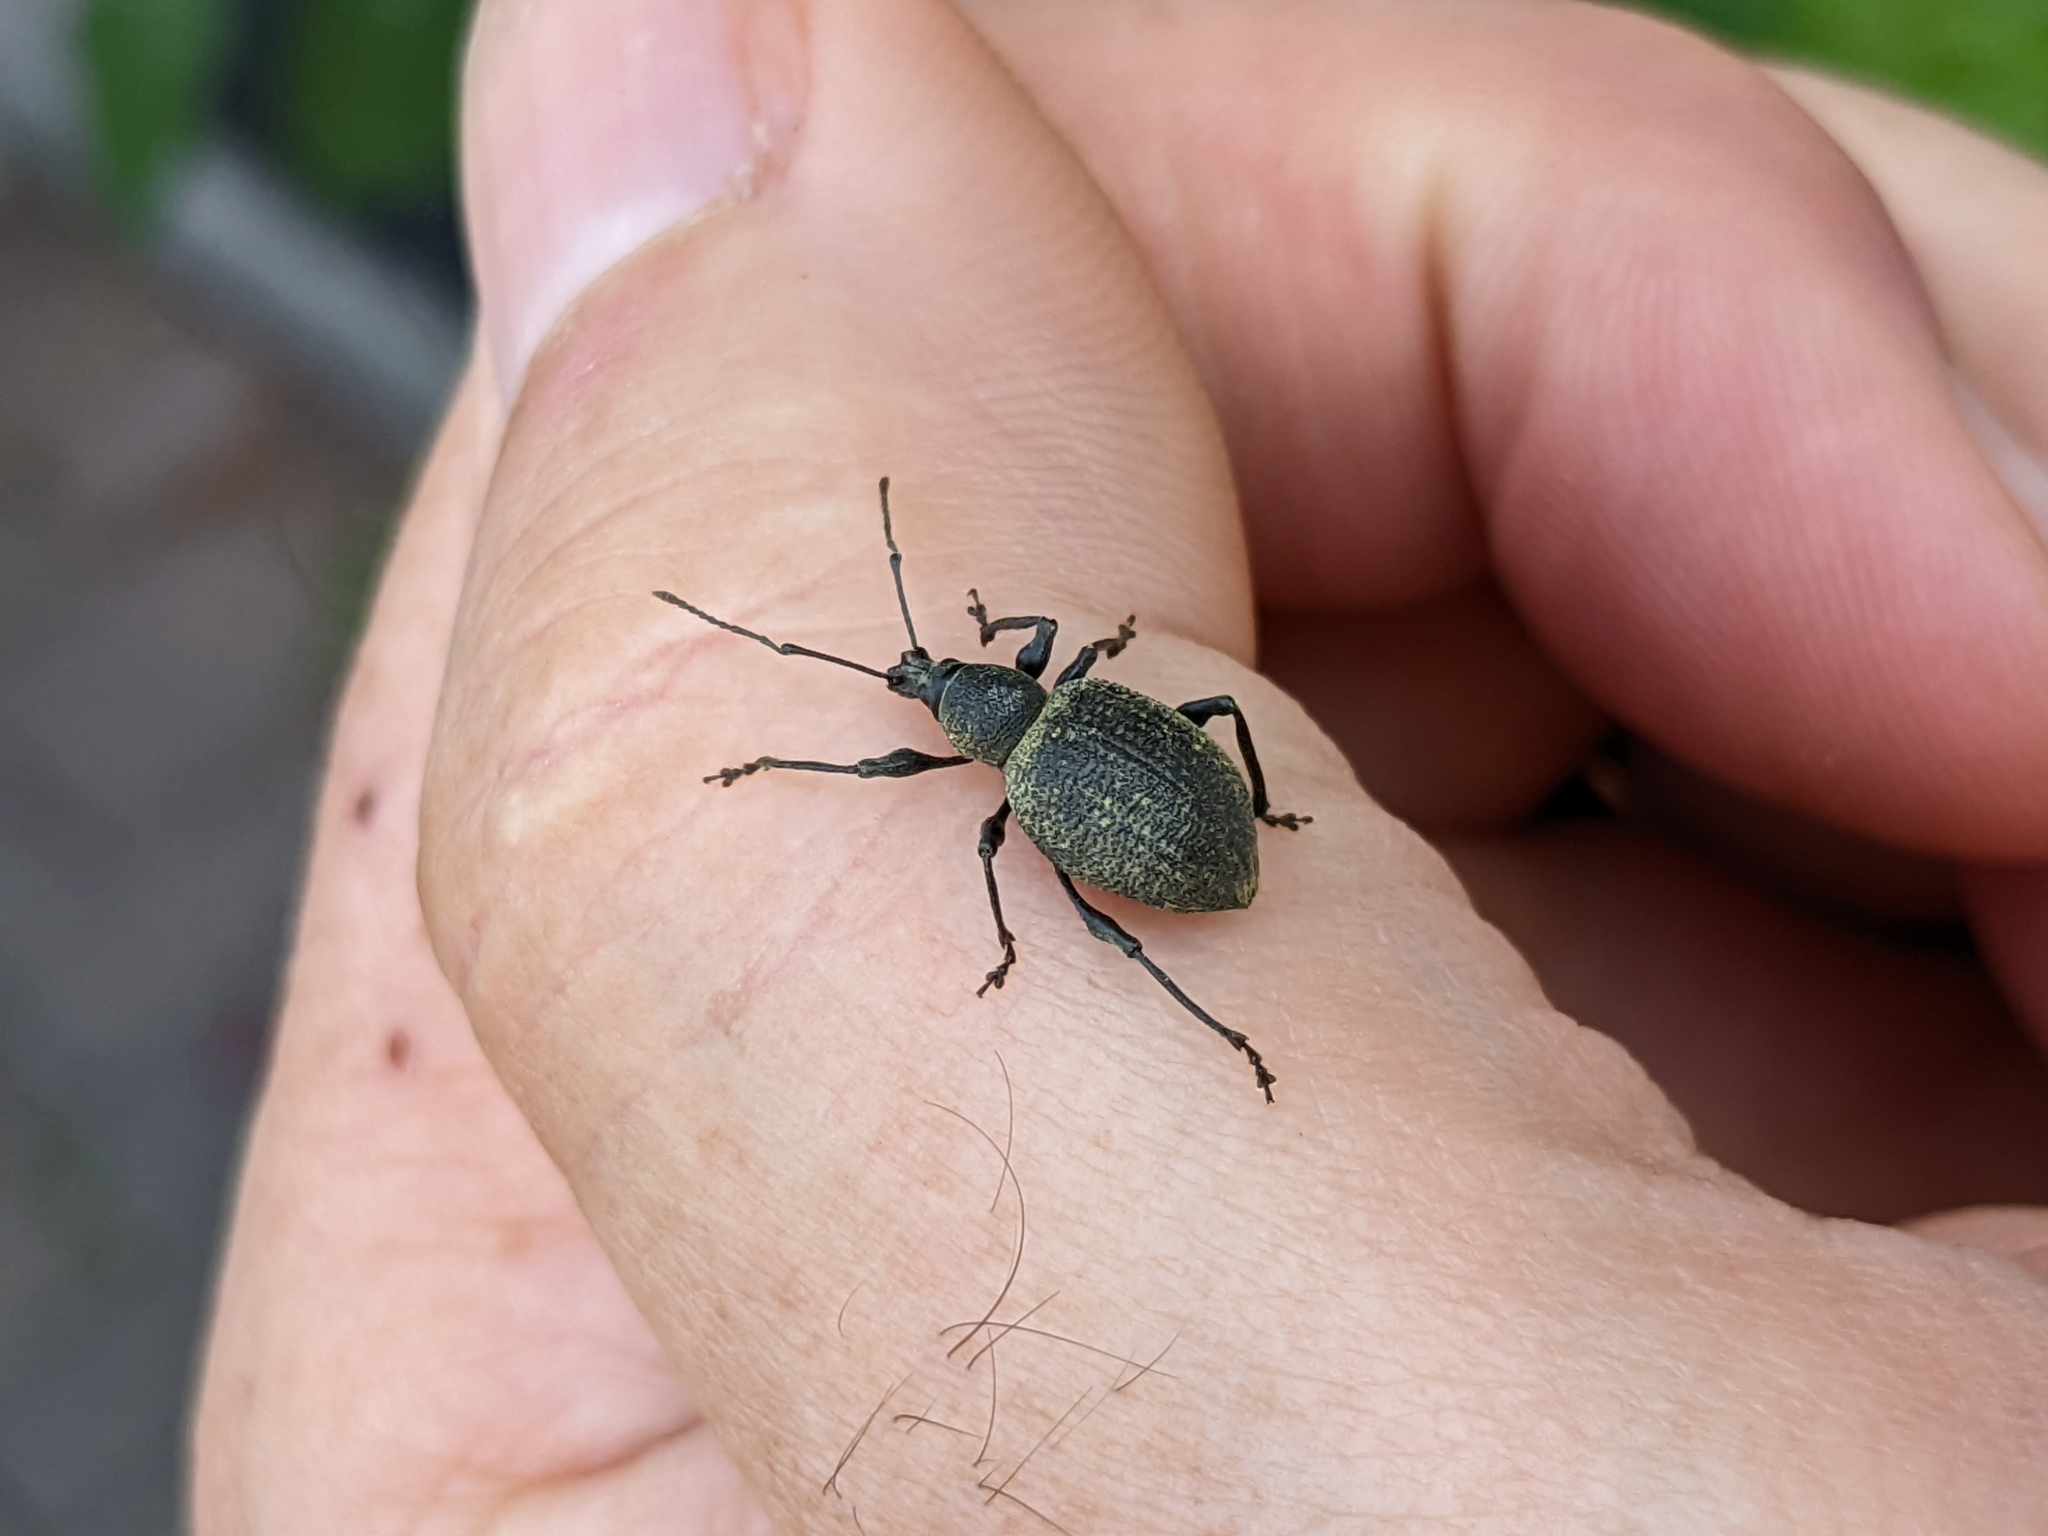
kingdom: Animalia
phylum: Arthropoda
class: Insecta
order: Coleoptera
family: Curculionidae
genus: Otiorhynchus
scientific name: Otiorhynchus sulcatus
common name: Black vine weevil
